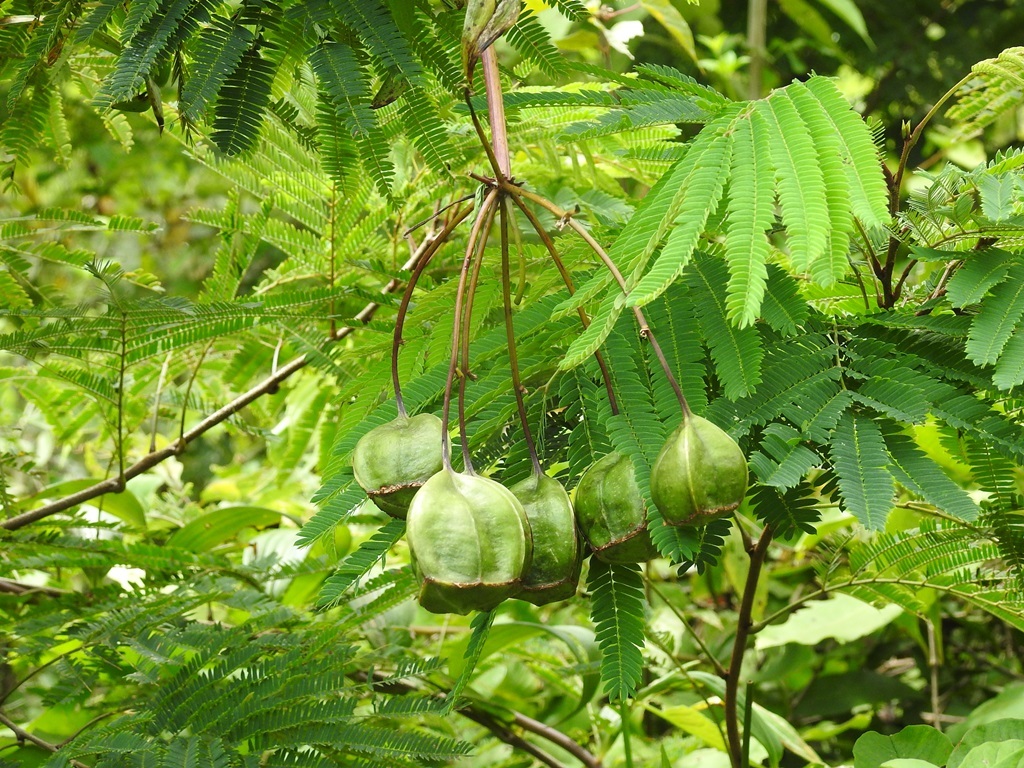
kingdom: Plantae
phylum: Tracheophyta
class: Liliopsida
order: Liliales
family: Alstroemeriaceae
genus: Bomarea
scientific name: Bomarea edulis
